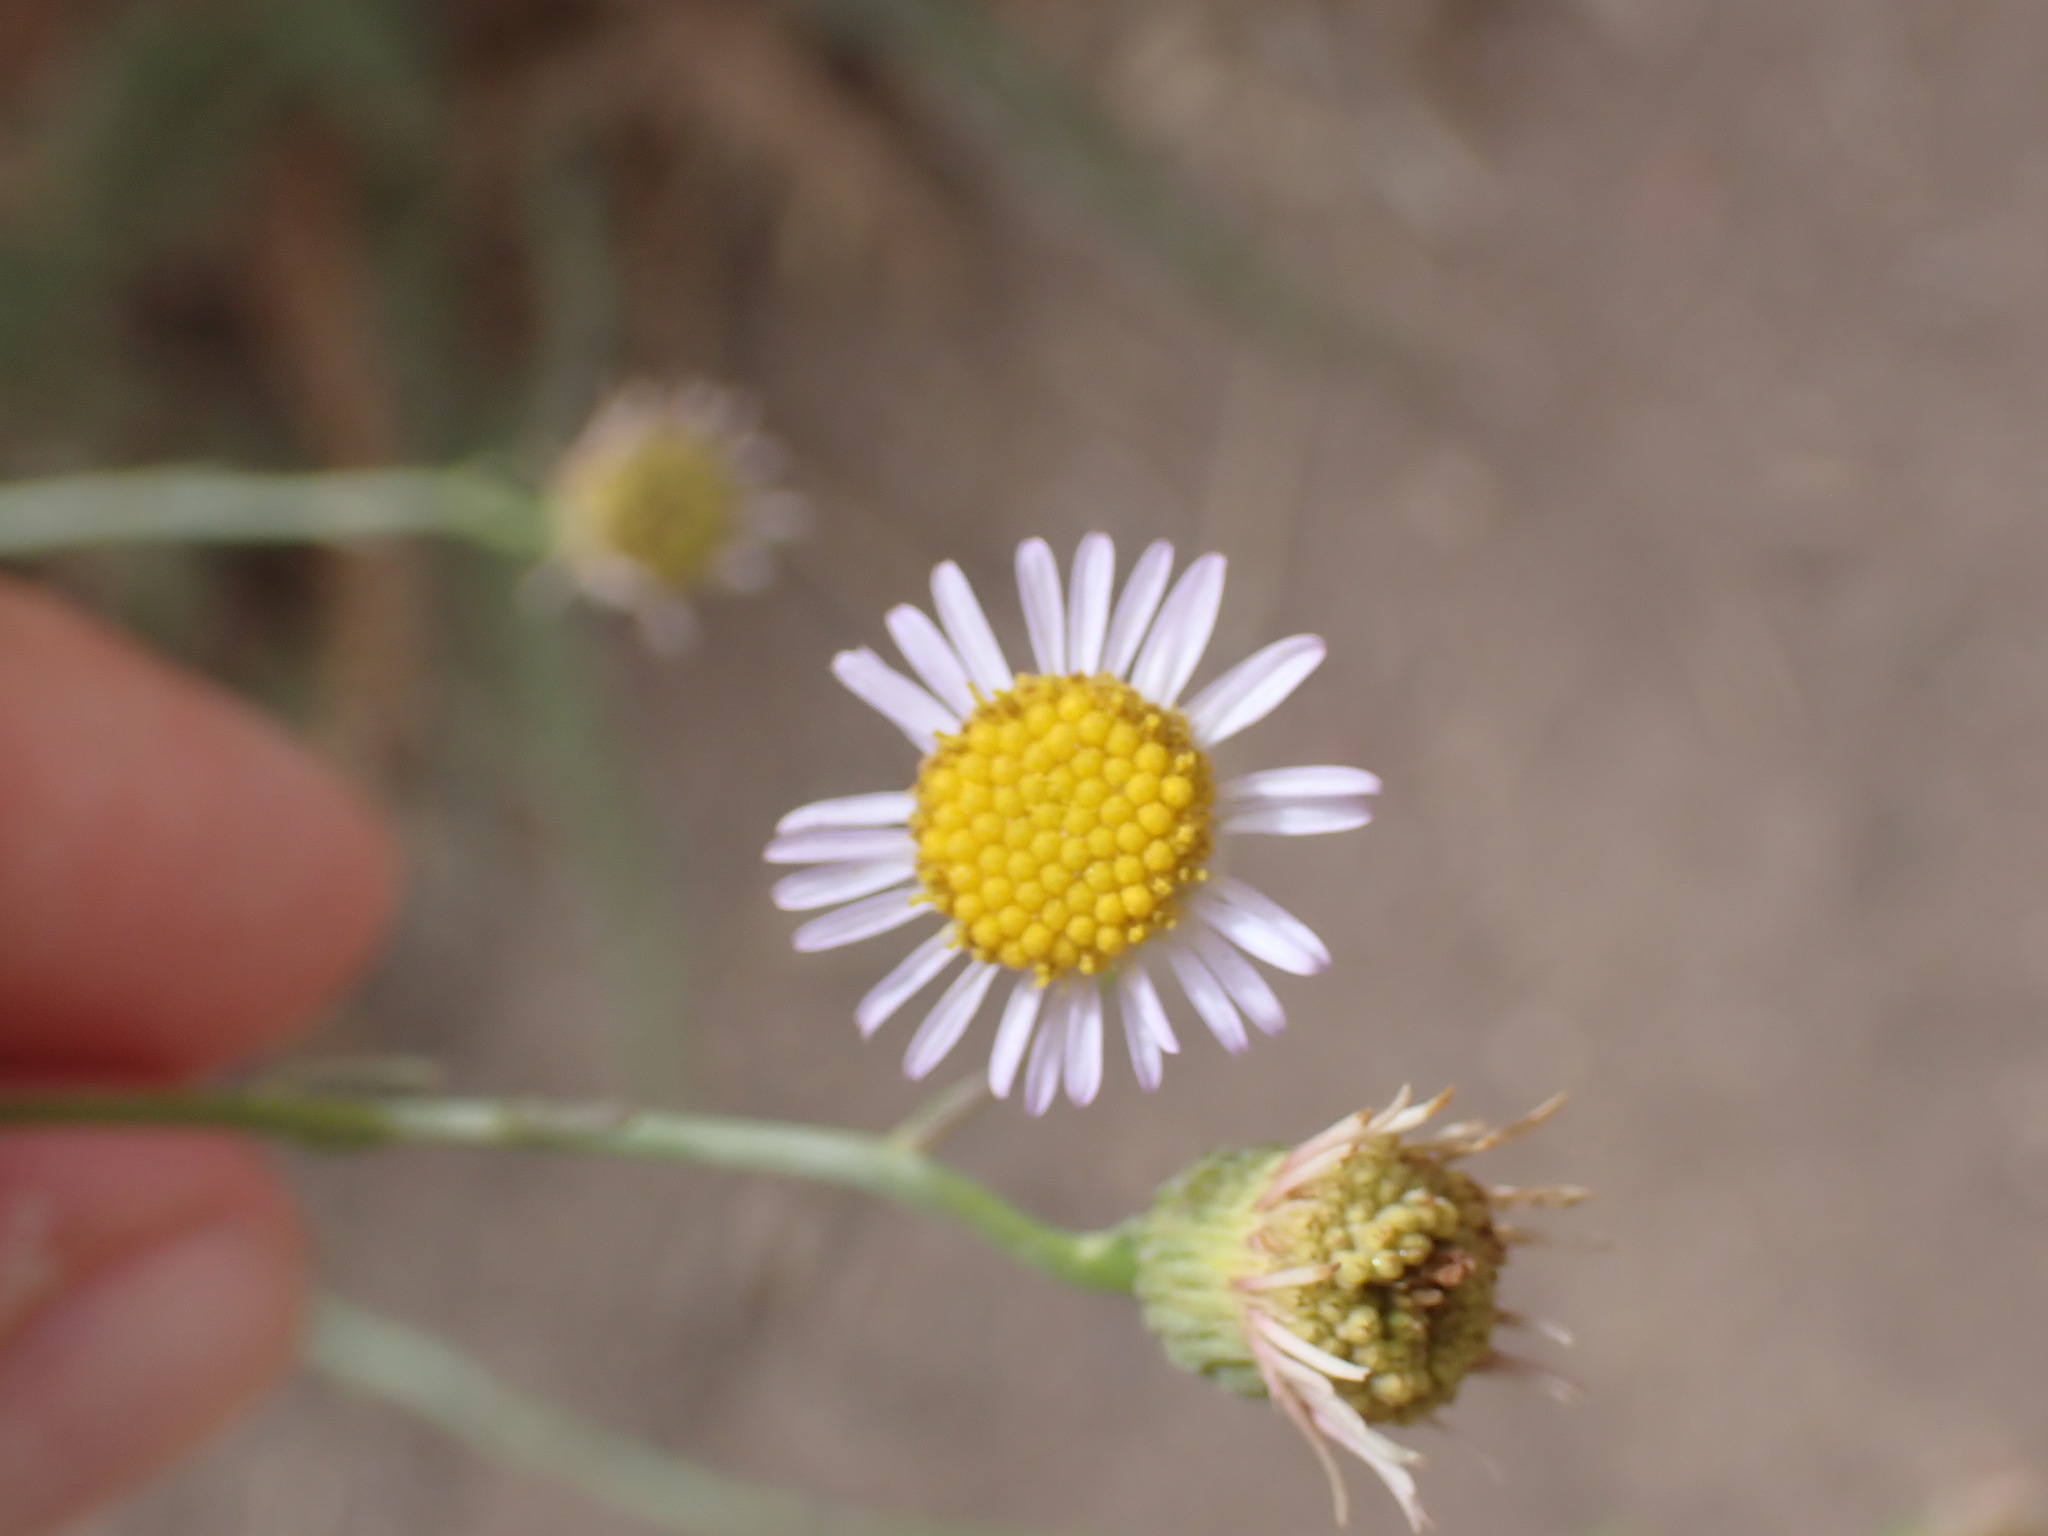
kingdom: Plantae
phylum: Tracheophyta
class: Magnoliopsida
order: Asterales
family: Asteraceae
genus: Erigeron
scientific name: Erigeron foliosus
